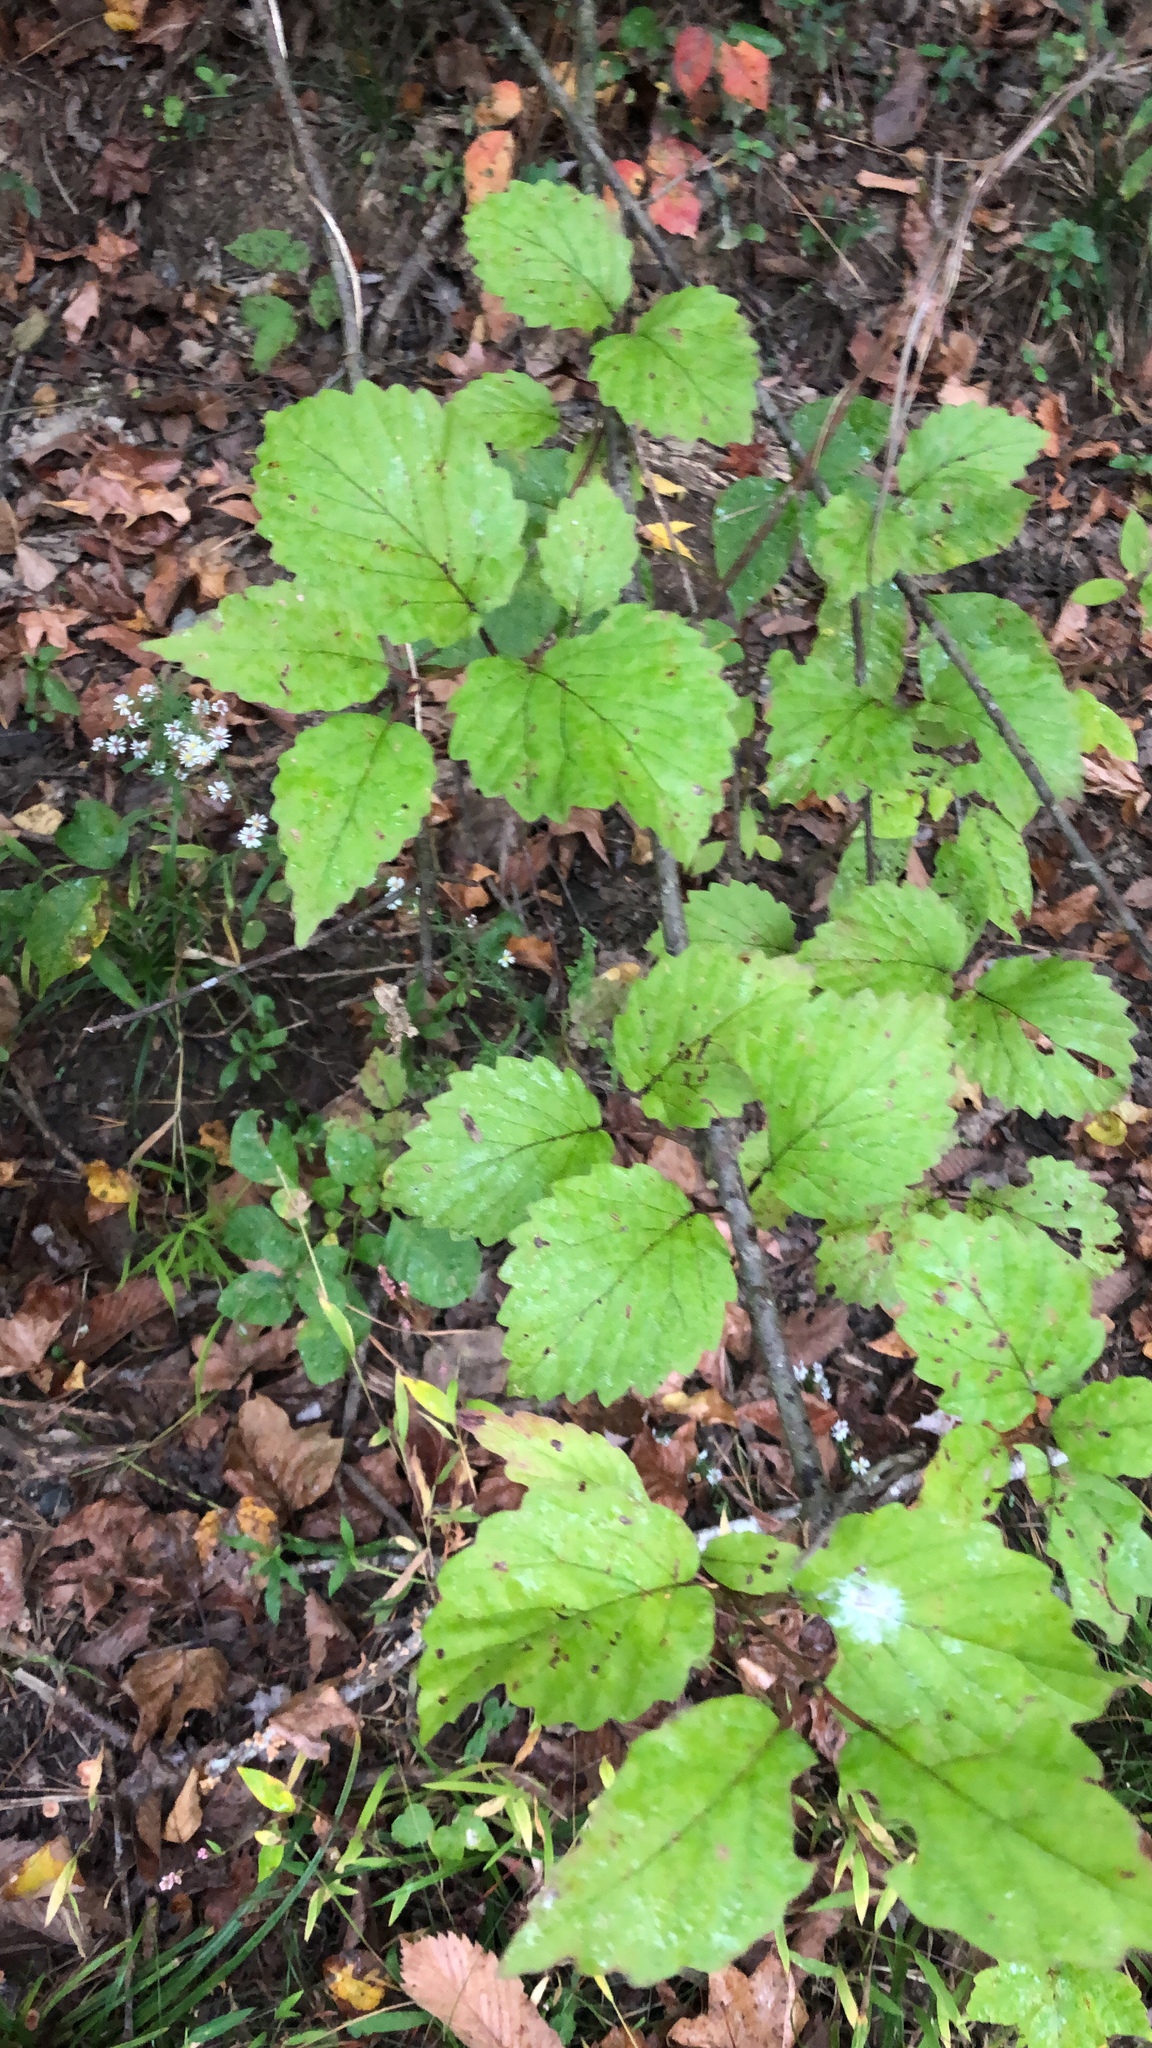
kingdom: Plantae
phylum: Tracheophyta
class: Magnoliopsida
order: Dipsacales
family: Viburnaceae
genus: Viburnum
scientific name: Viburnum dentatum
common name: Arrow-wood
